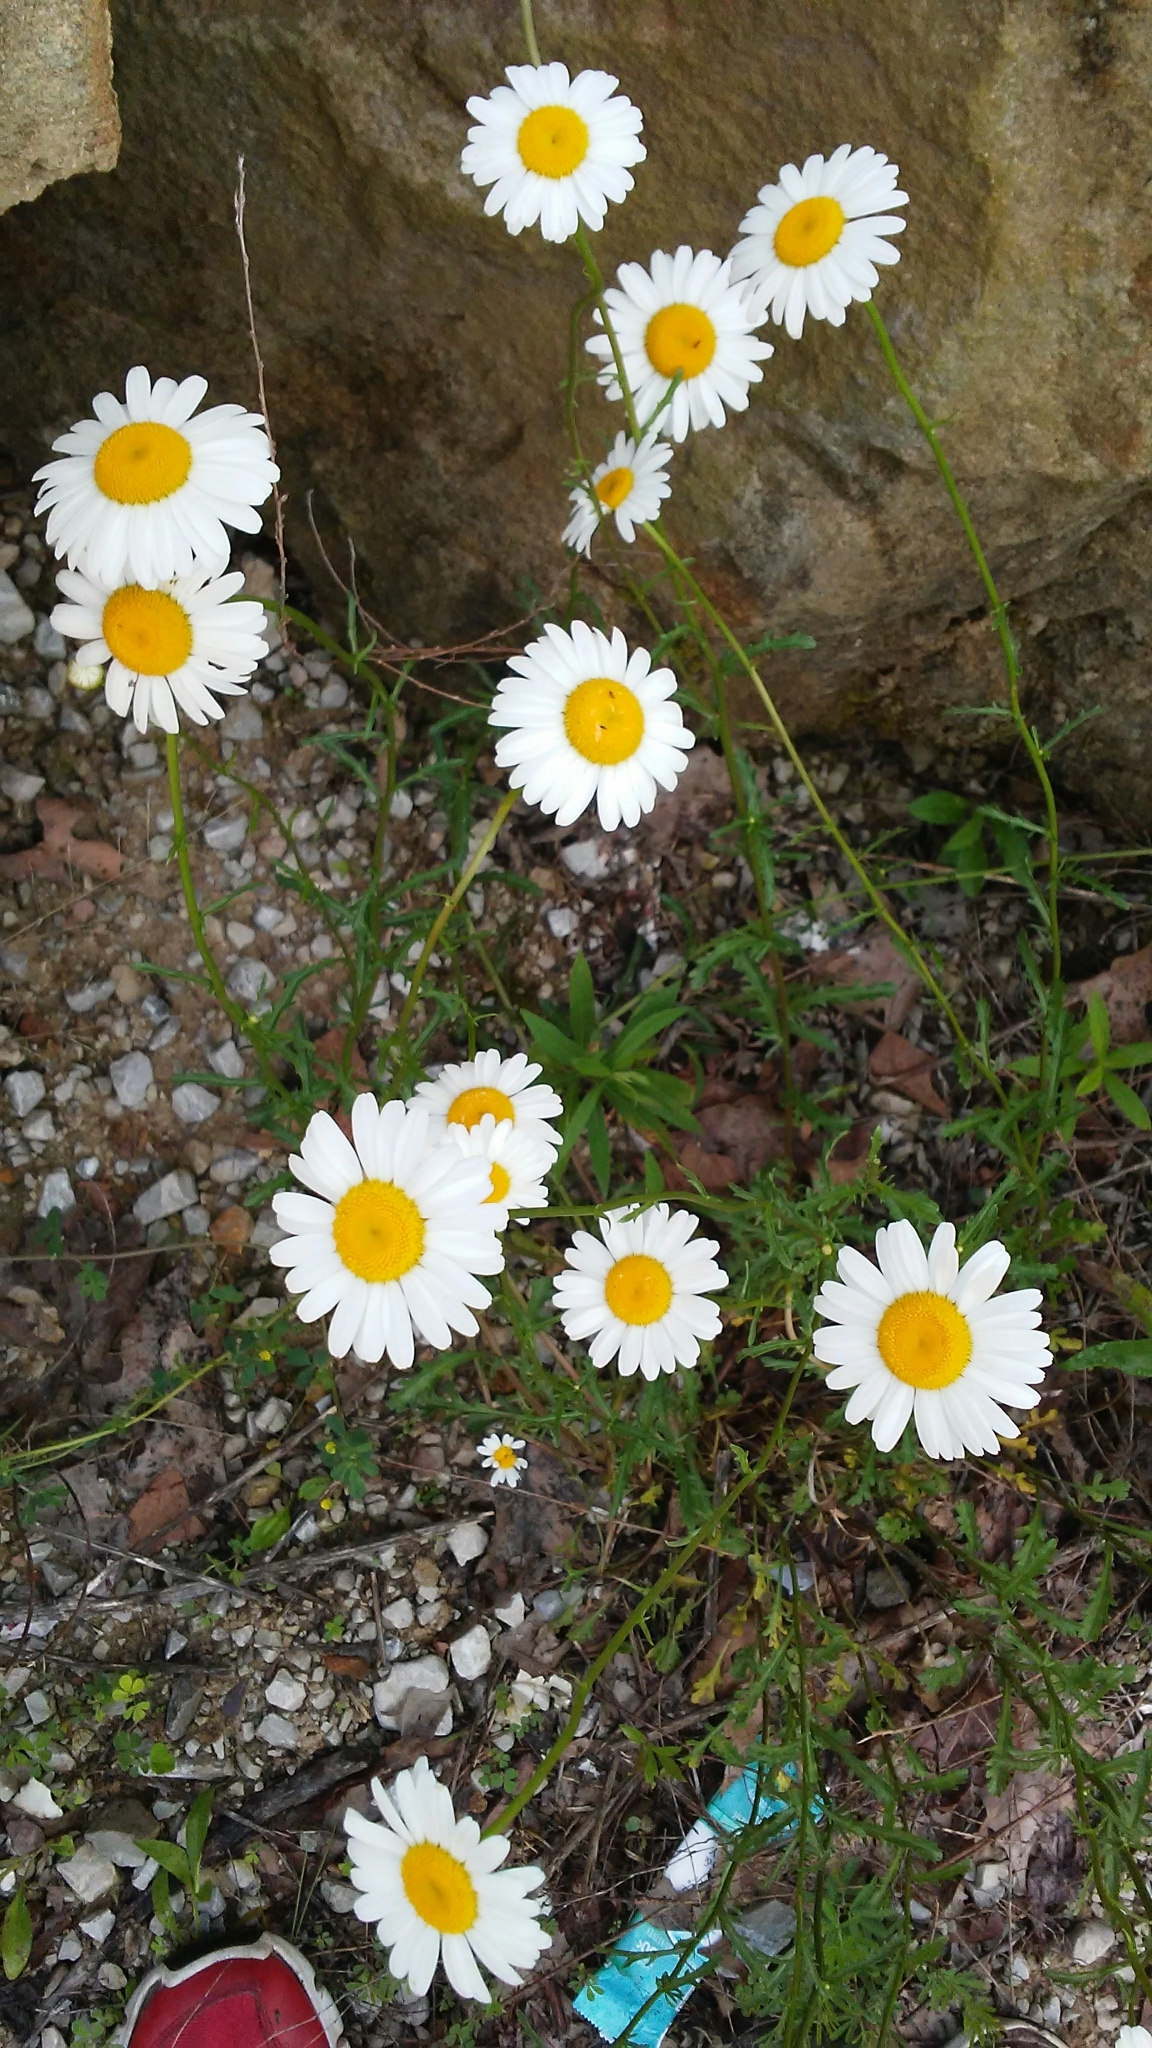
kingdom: Plantae
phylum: Tracheophyta
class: Magnoliopsida
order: Asterales
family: Asteraceae
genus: Leucanthemum
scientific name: Leucanthemum vulgare
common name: Oxeye daisy
